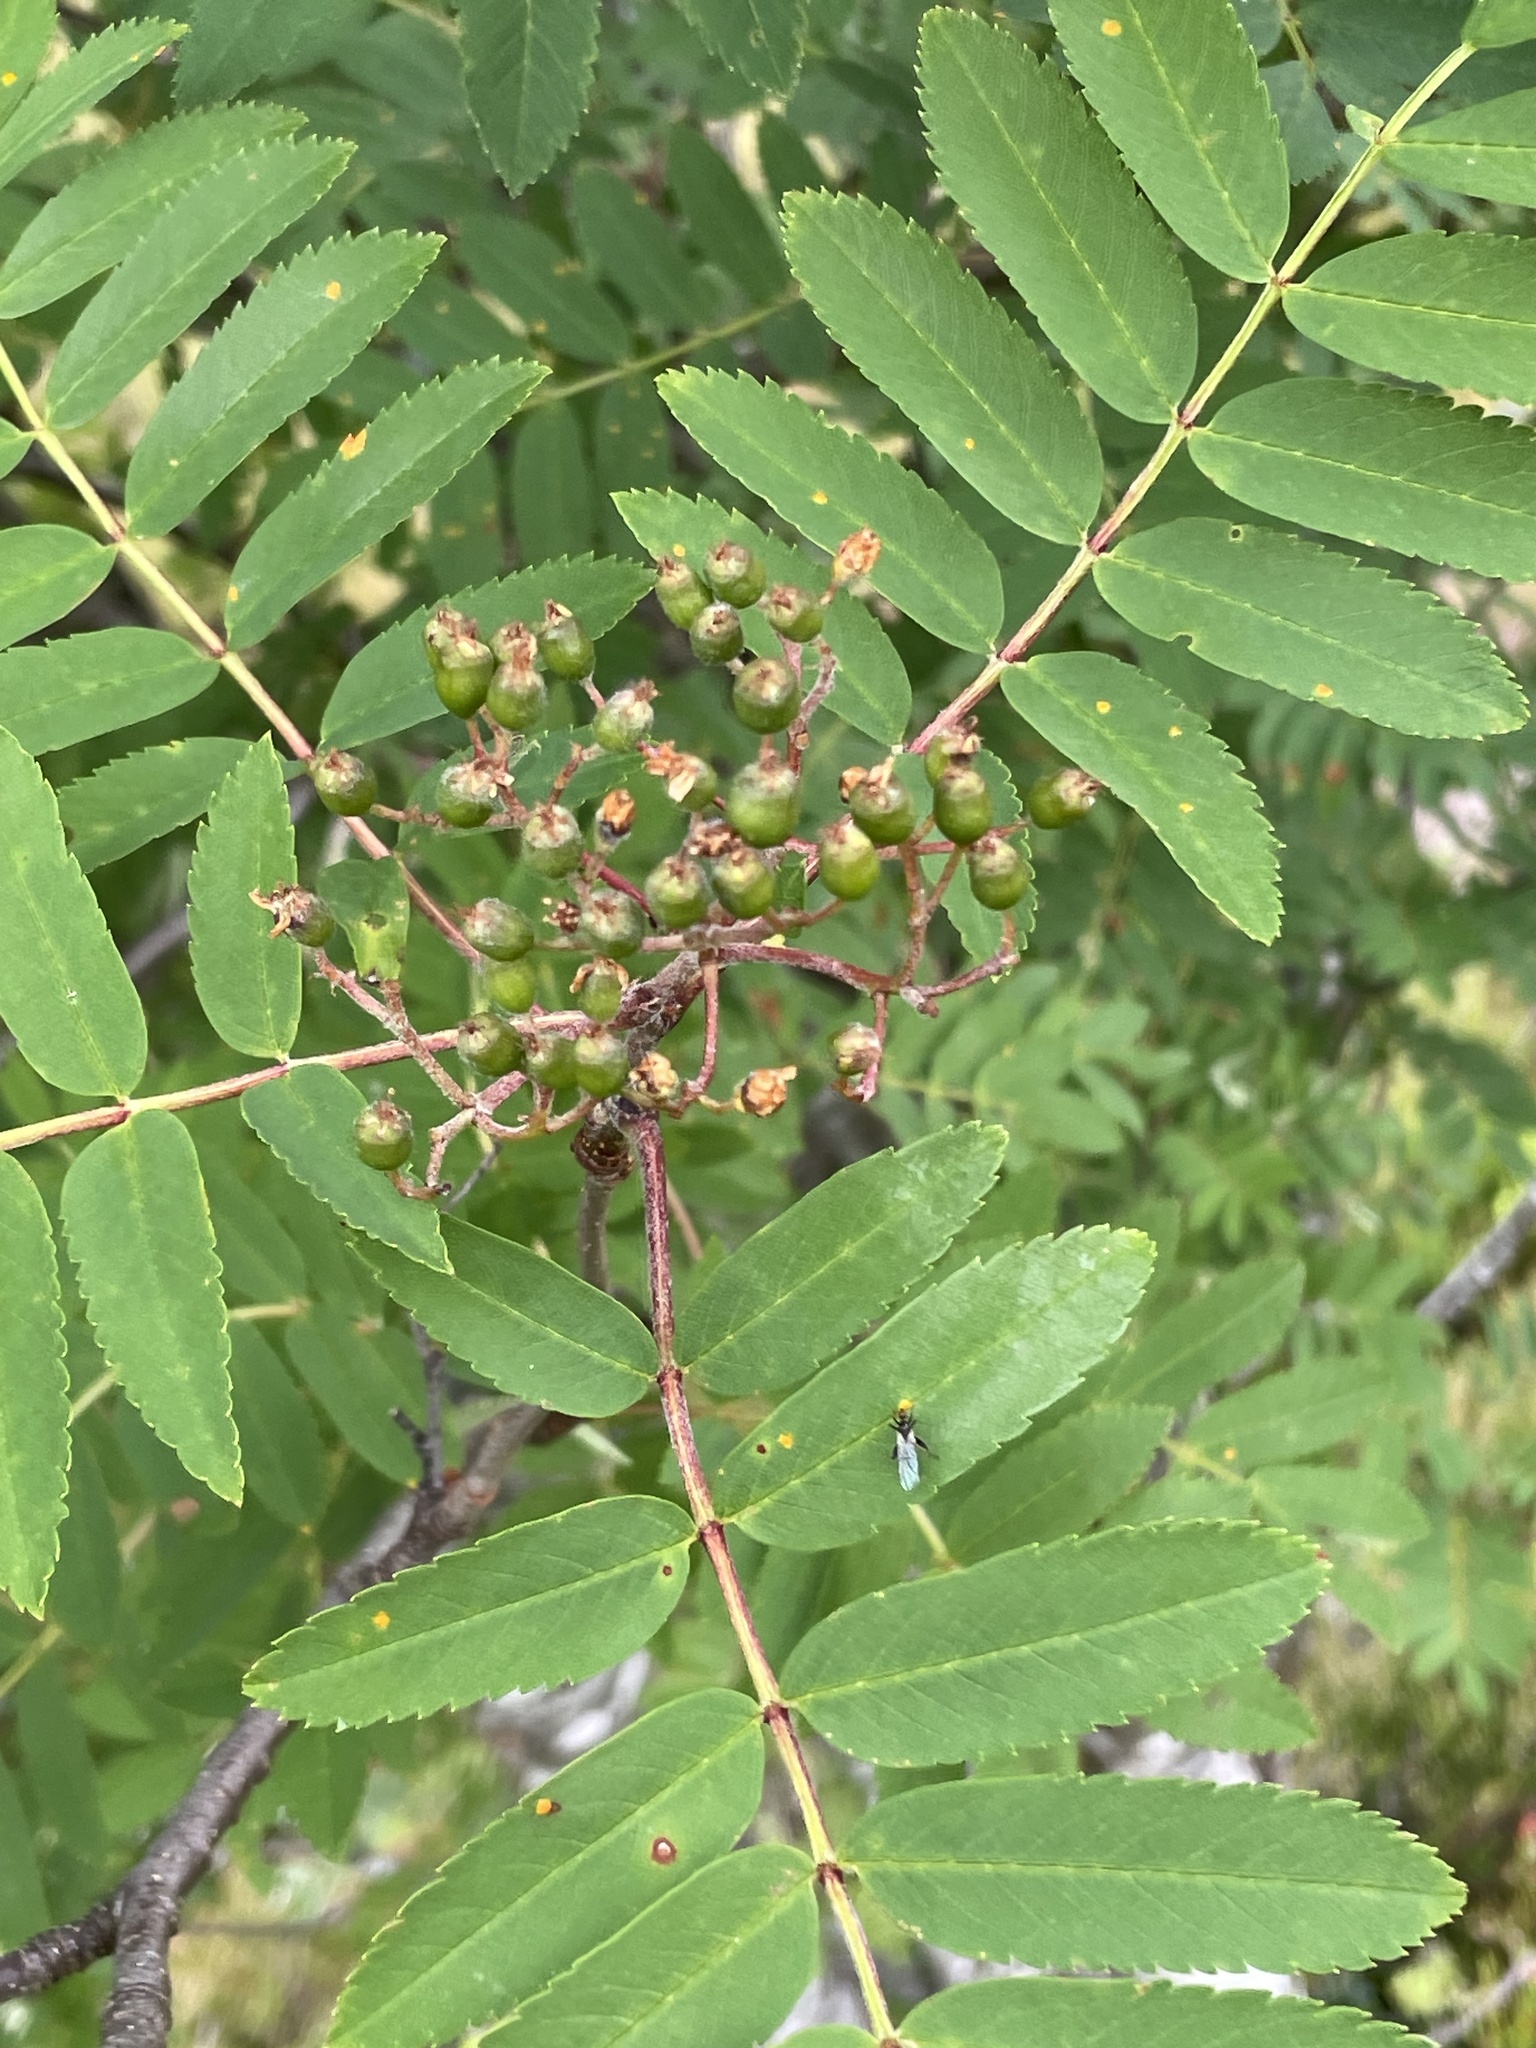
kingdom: Plantae
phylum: Tracheophyta
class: Magnoliopsida
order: Rosales
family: Rosaceae
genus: Sorbus
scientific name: Sorbus aucuparia
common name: Rowan
